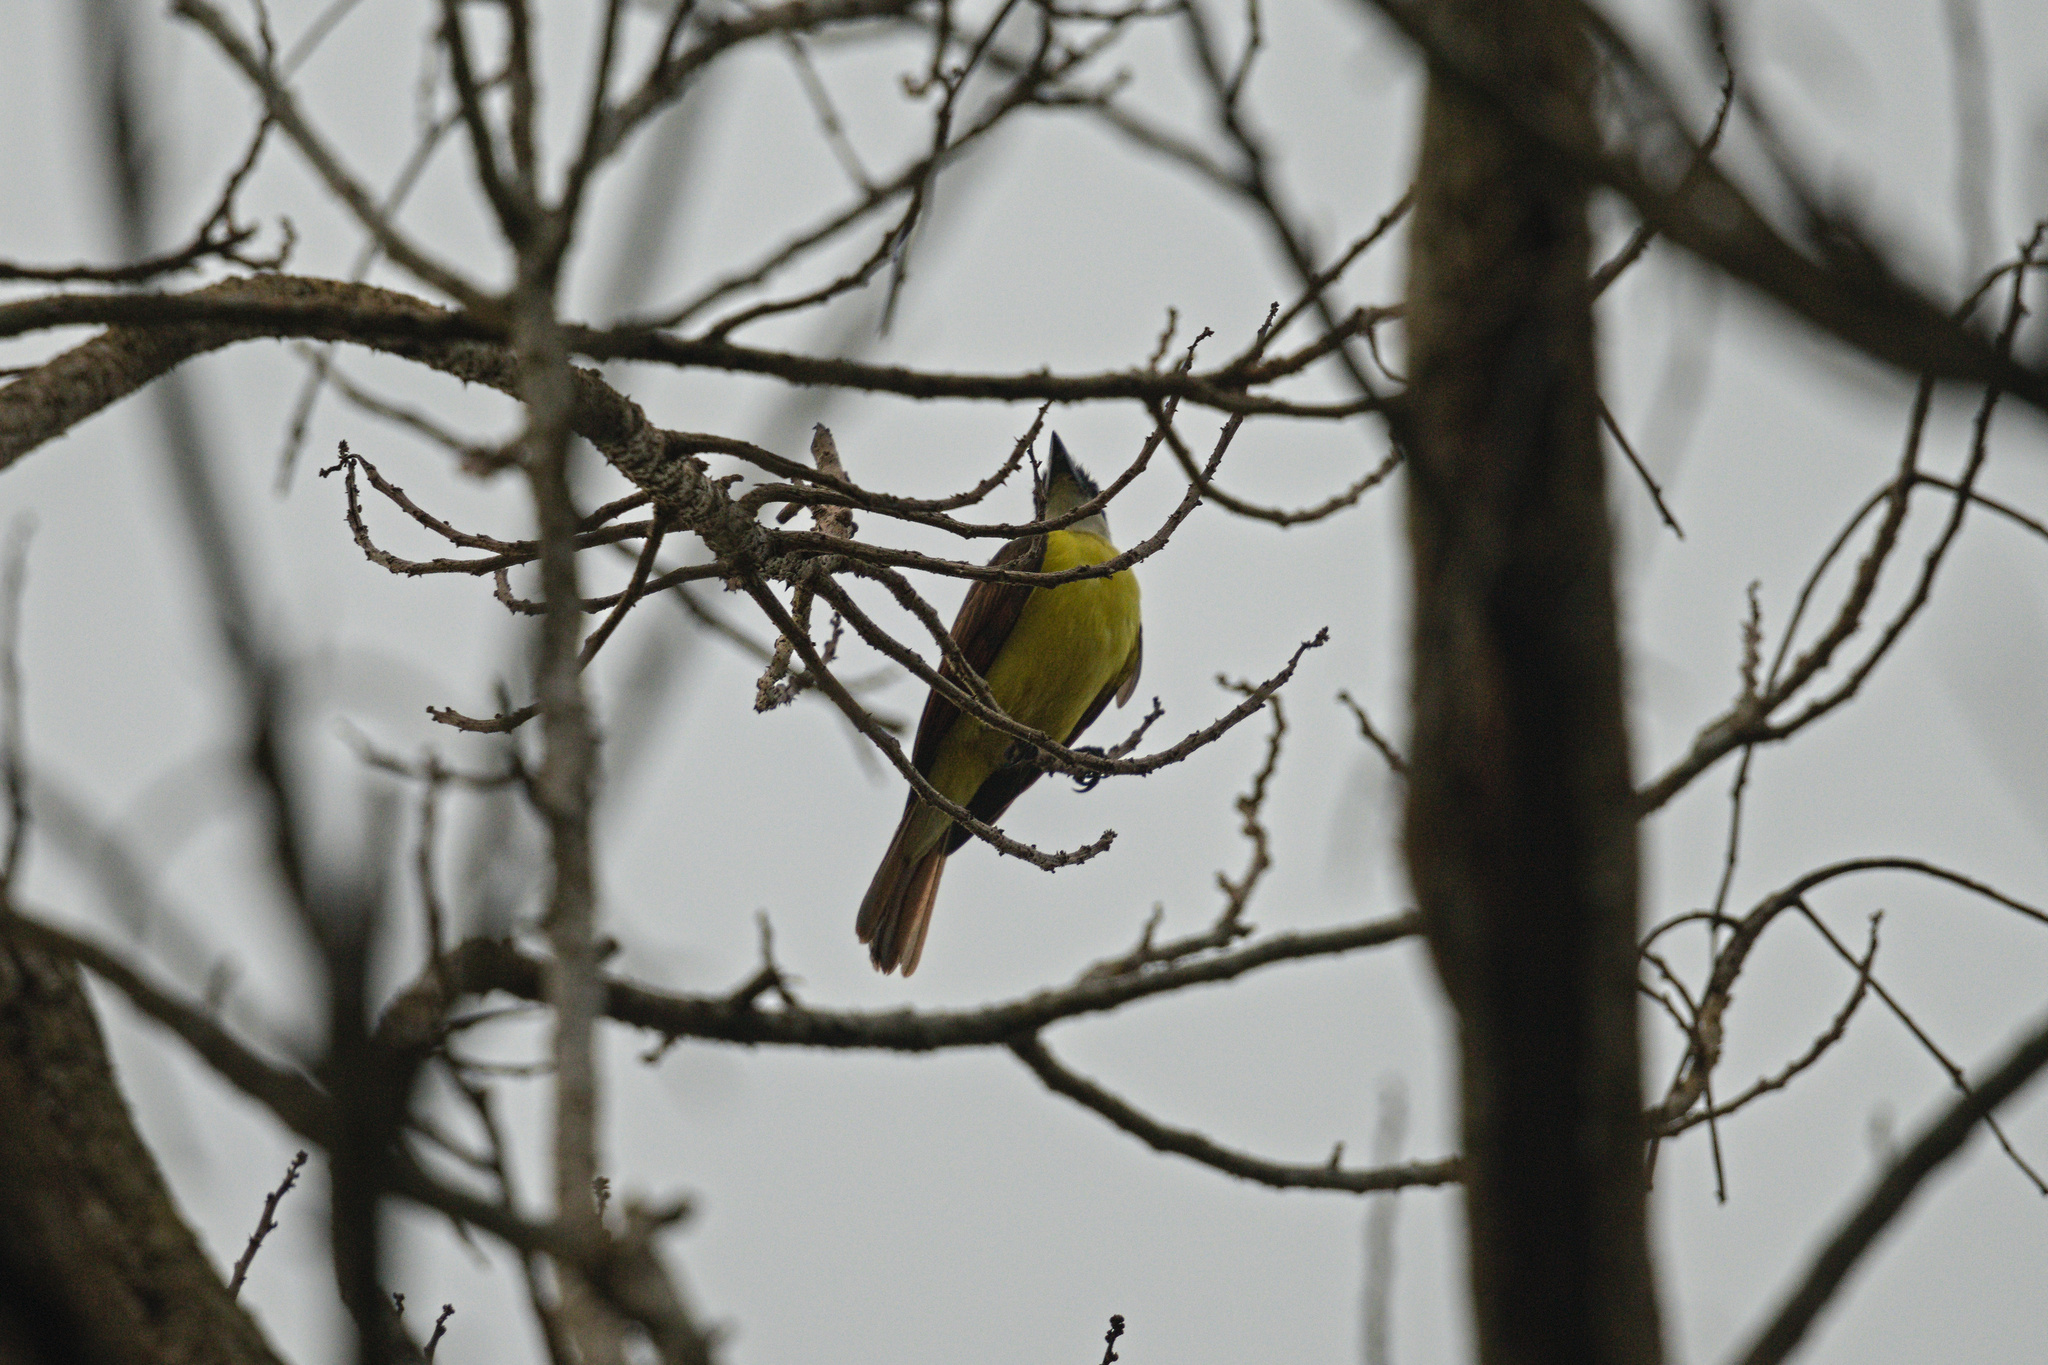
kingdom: Animalia
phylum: Chordata
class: Aves
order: Passeriformes
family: Tyrannidae
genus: Pitangus
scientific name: Pitangus sulphuratus
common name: Great kiskadee
